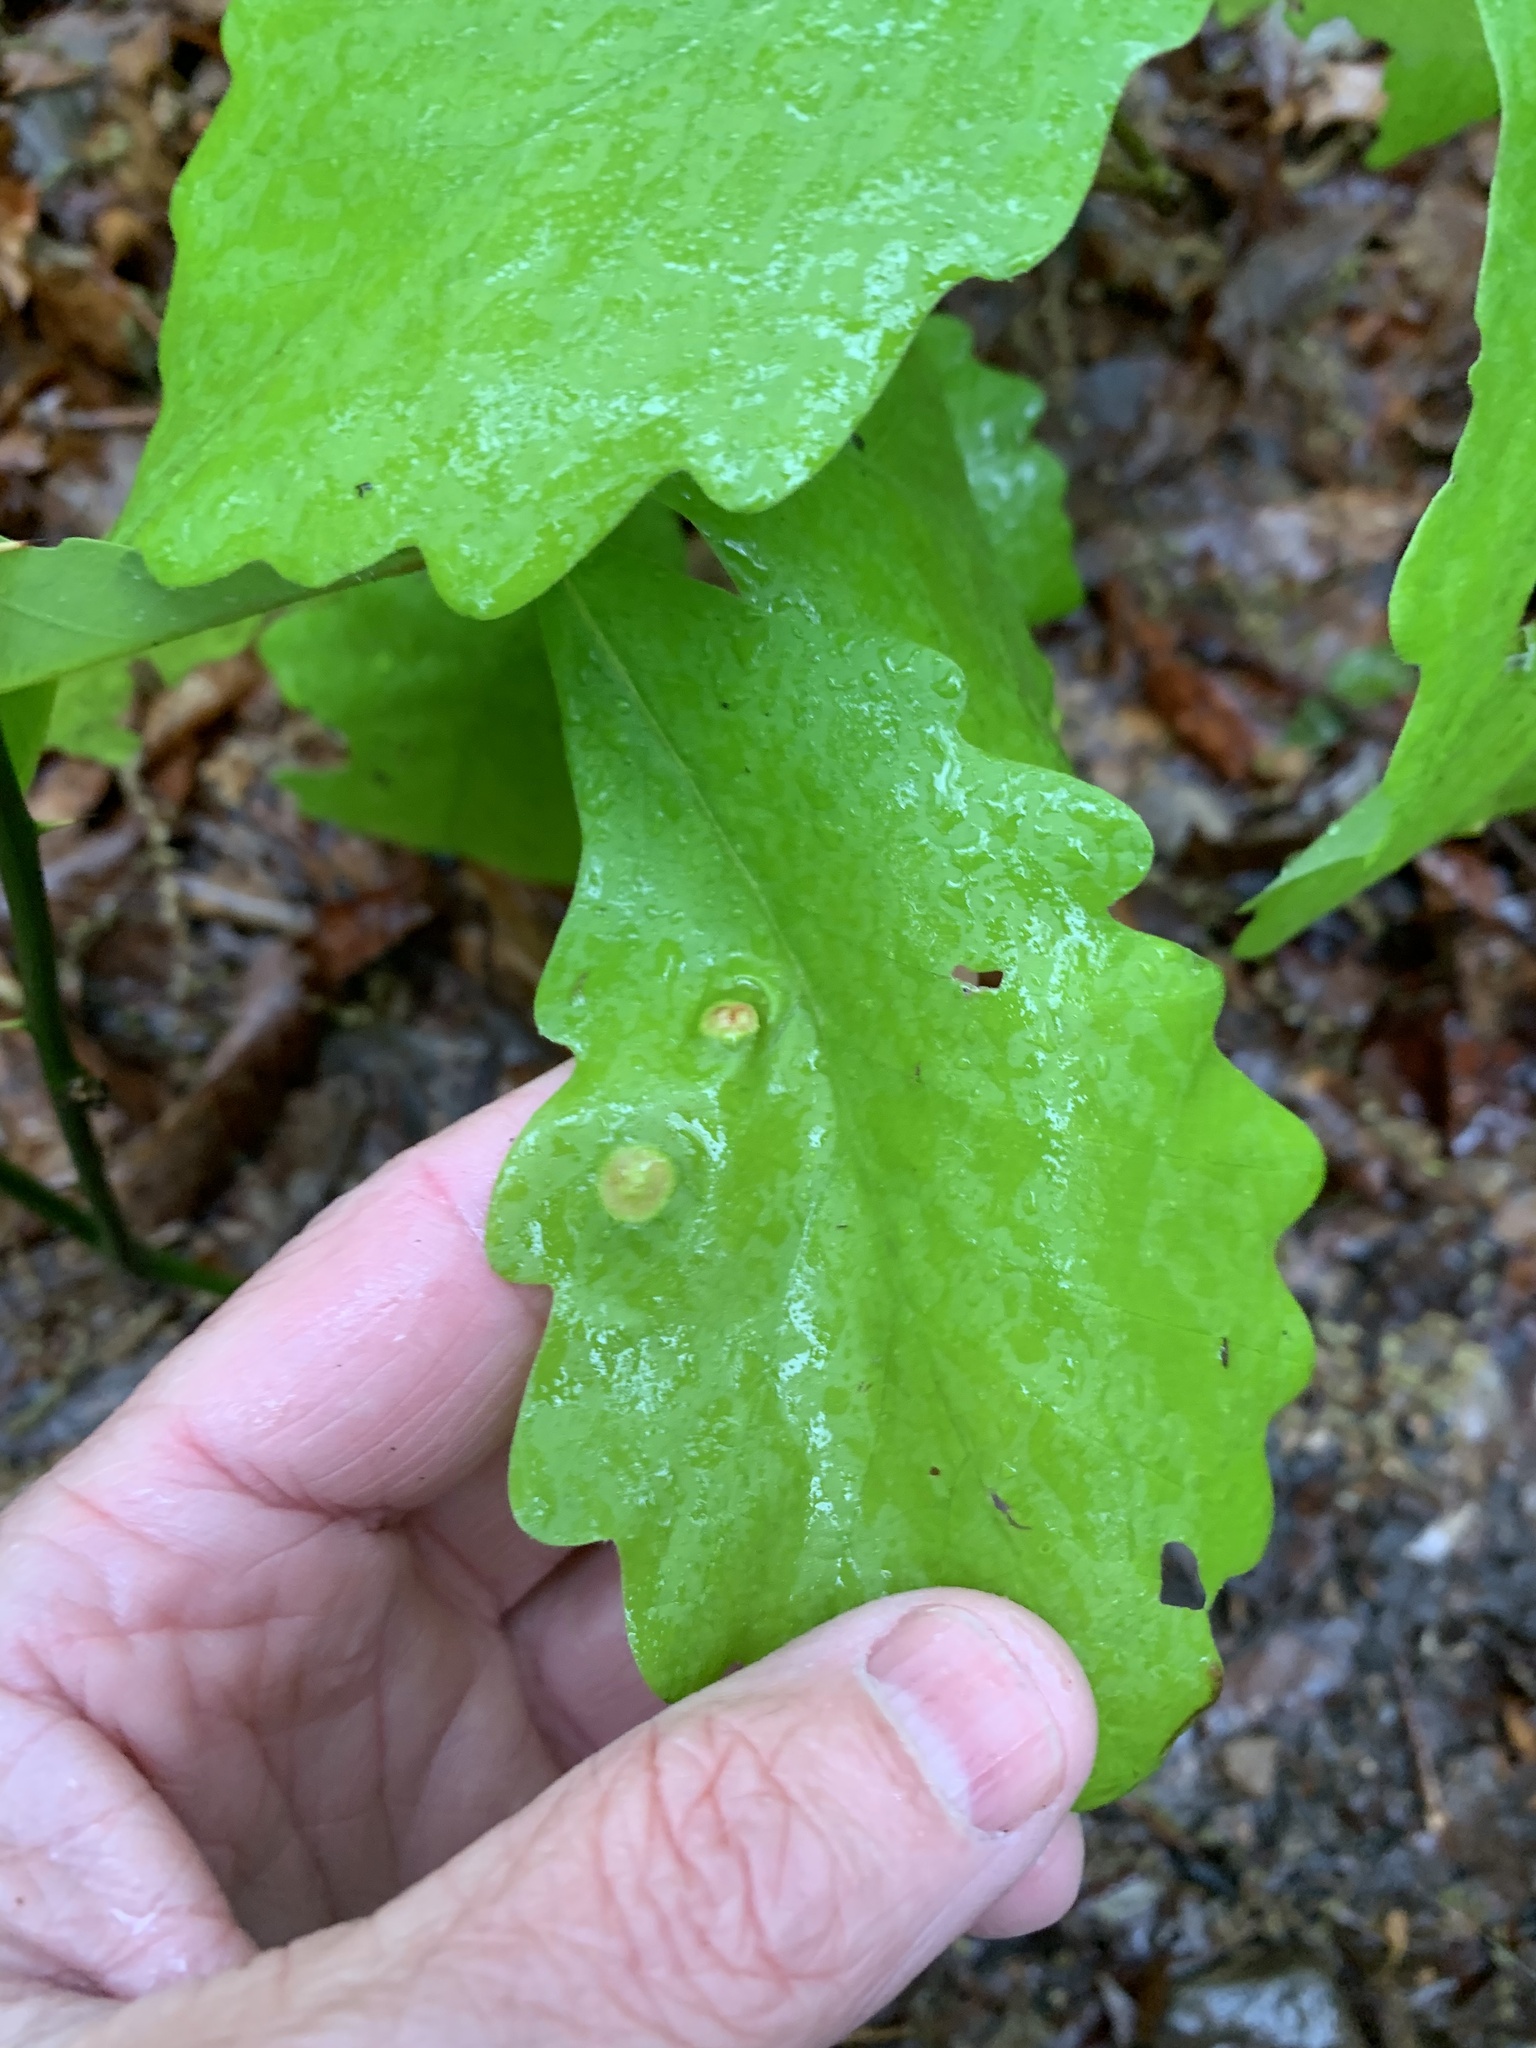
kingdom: Animalia
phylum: Arthropoda
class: Insecta
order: Hymenoptera
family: Cynipidae
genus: Callirhytis
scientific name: Callirhytis
